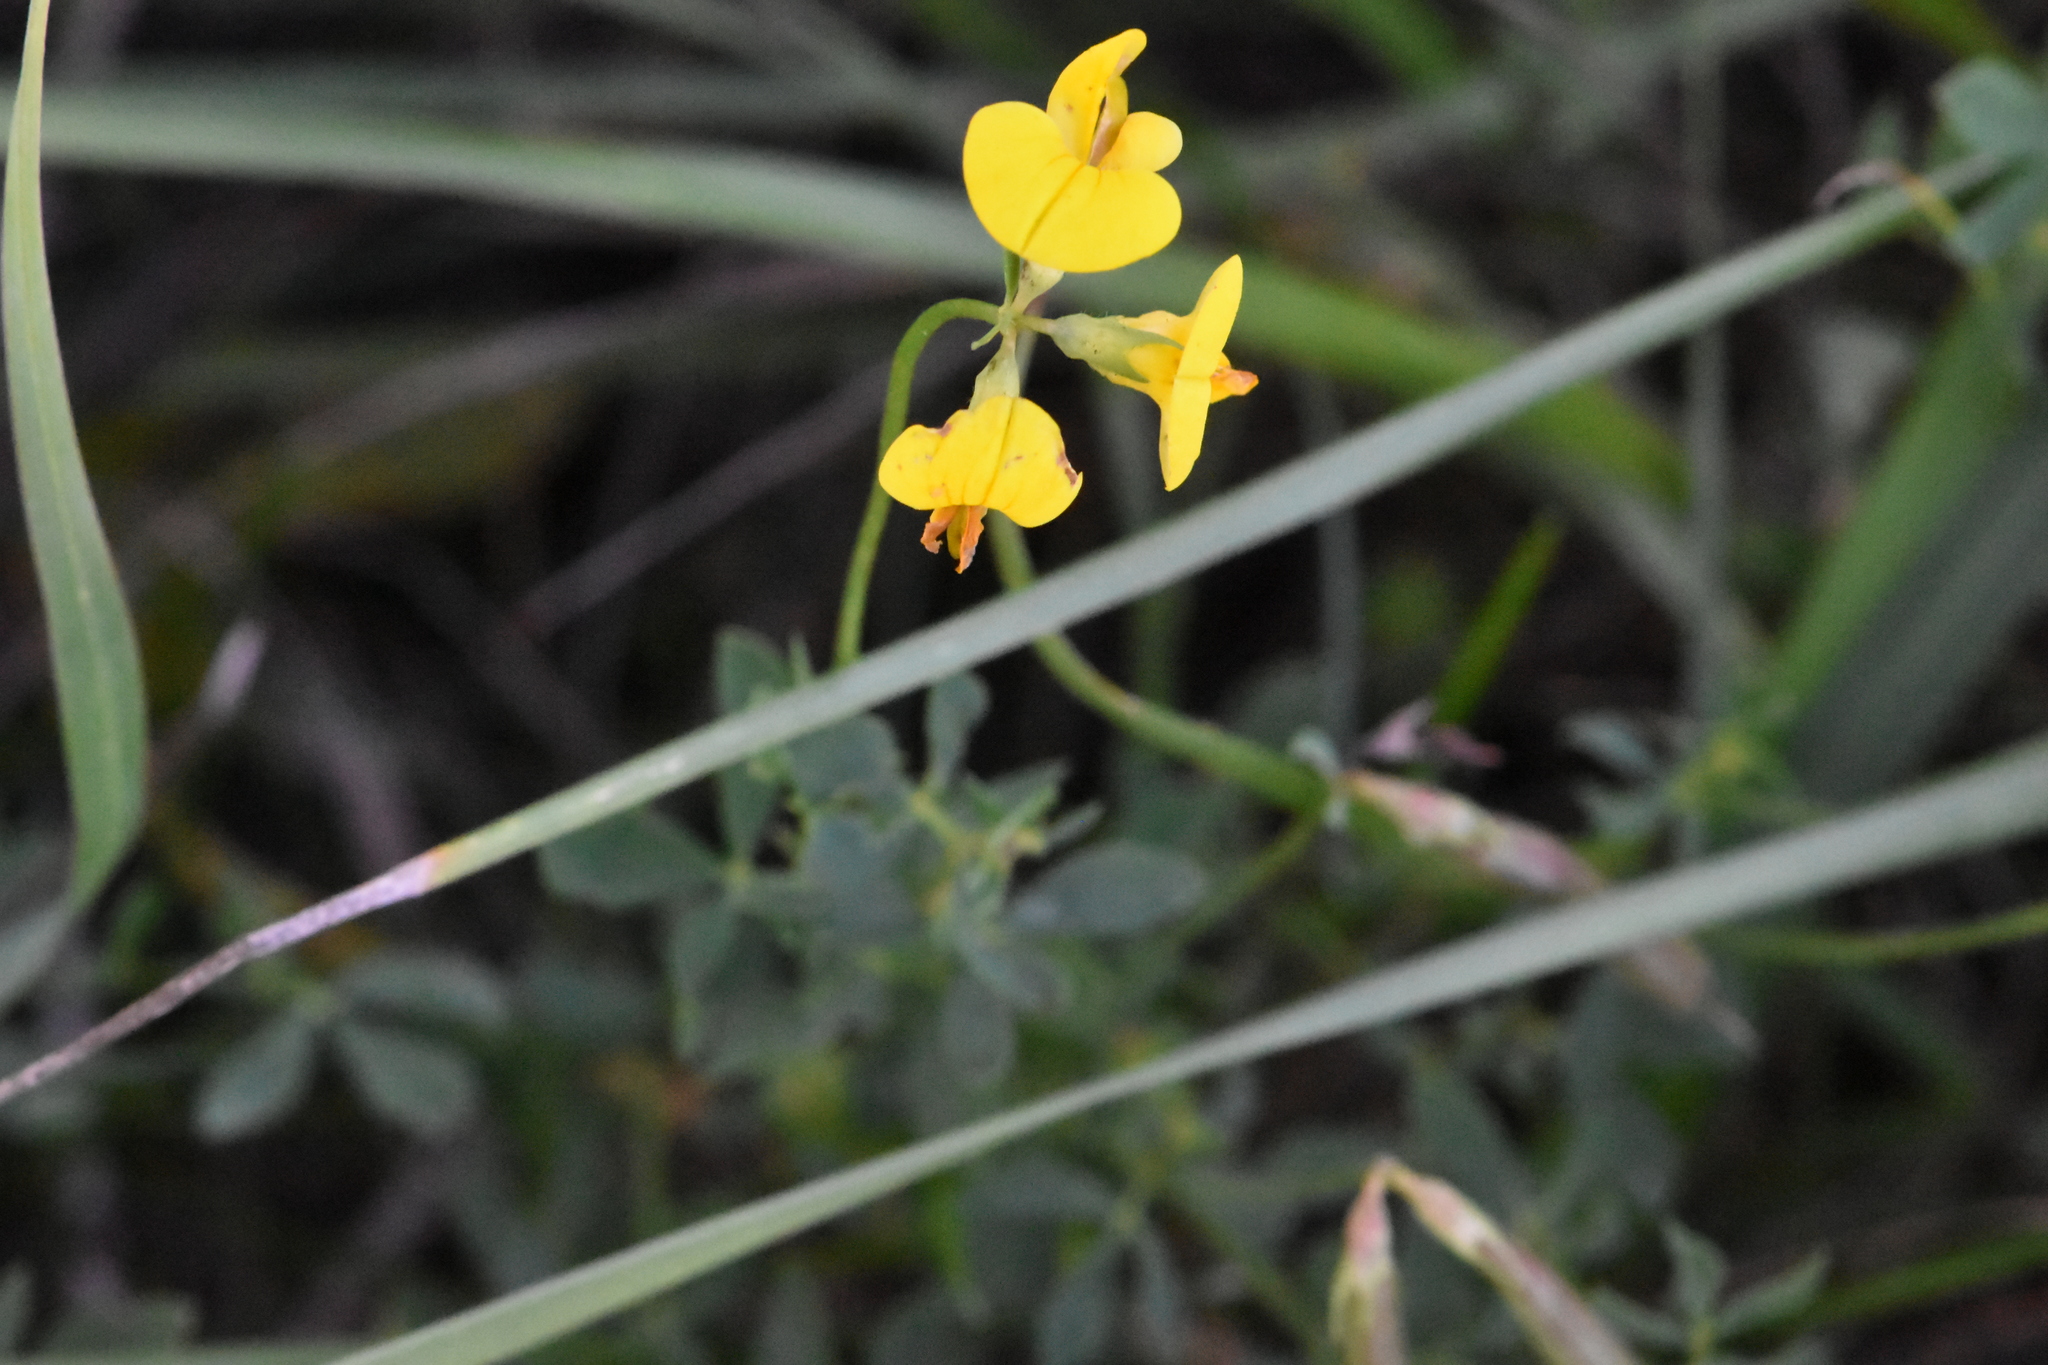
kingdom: Plantae
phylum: Tracheophyta
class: Magnoliopsida
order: Fabales
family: Fabaceae
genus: Lotus
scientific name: Lotus corniculatus
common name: Common bird's-foot-trefoil
